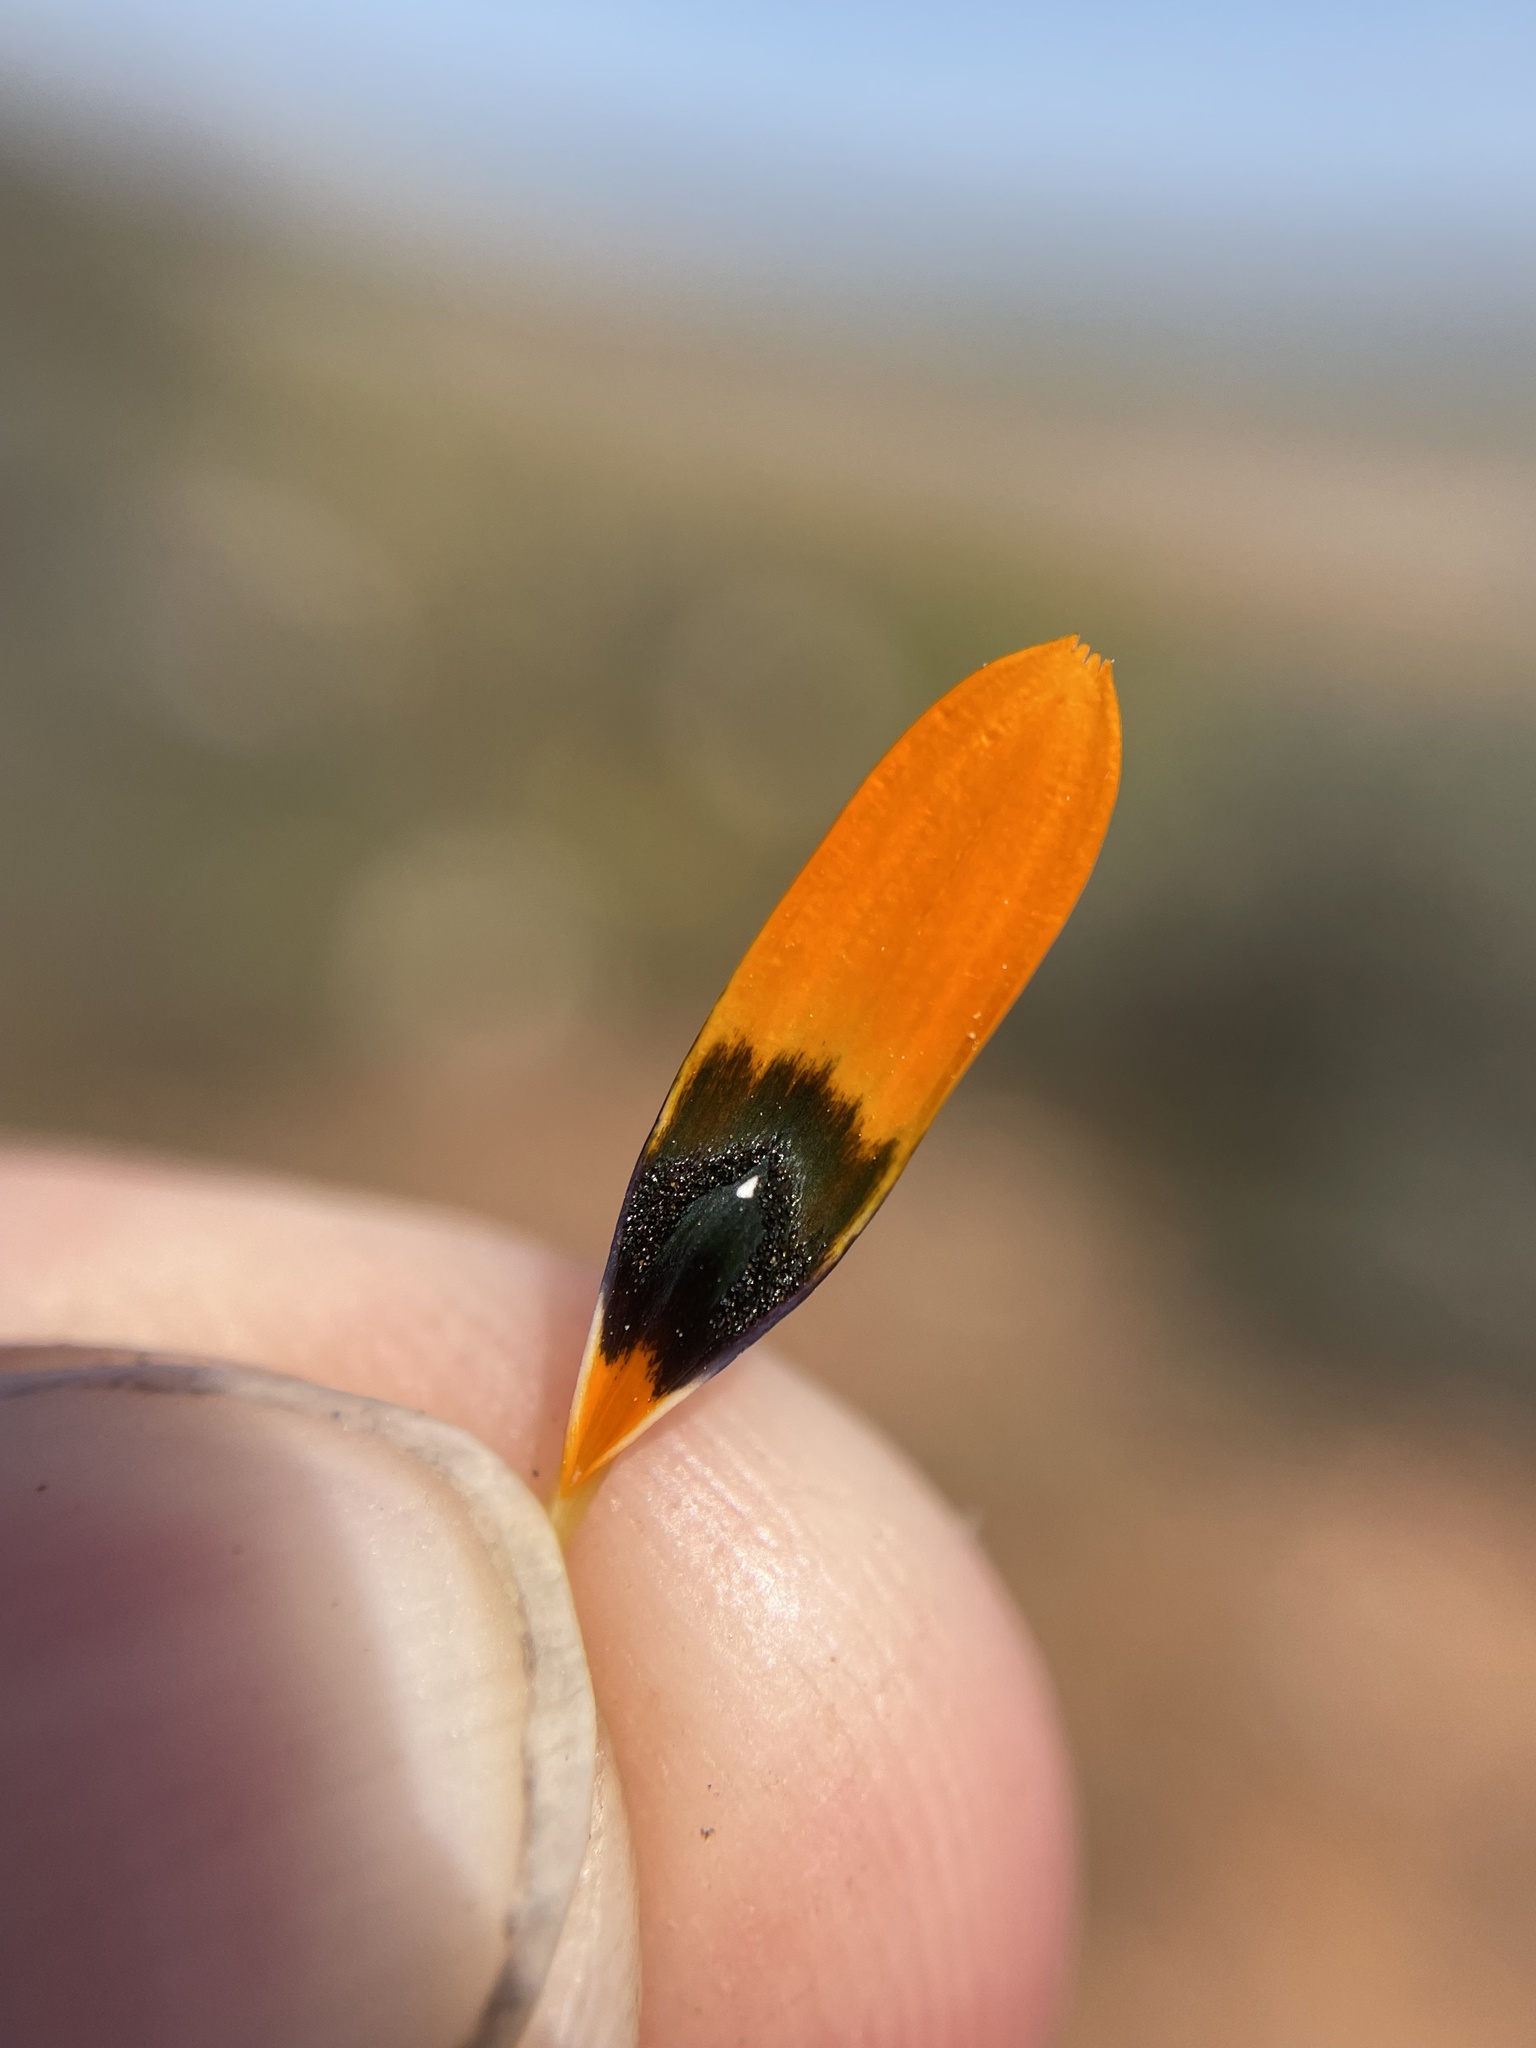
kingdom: Plantae
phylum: Tracheophyta
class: Magnoliopsida
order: Asterales
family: Asteraceae
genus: Gorteria
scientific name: Gorteria diffusa
